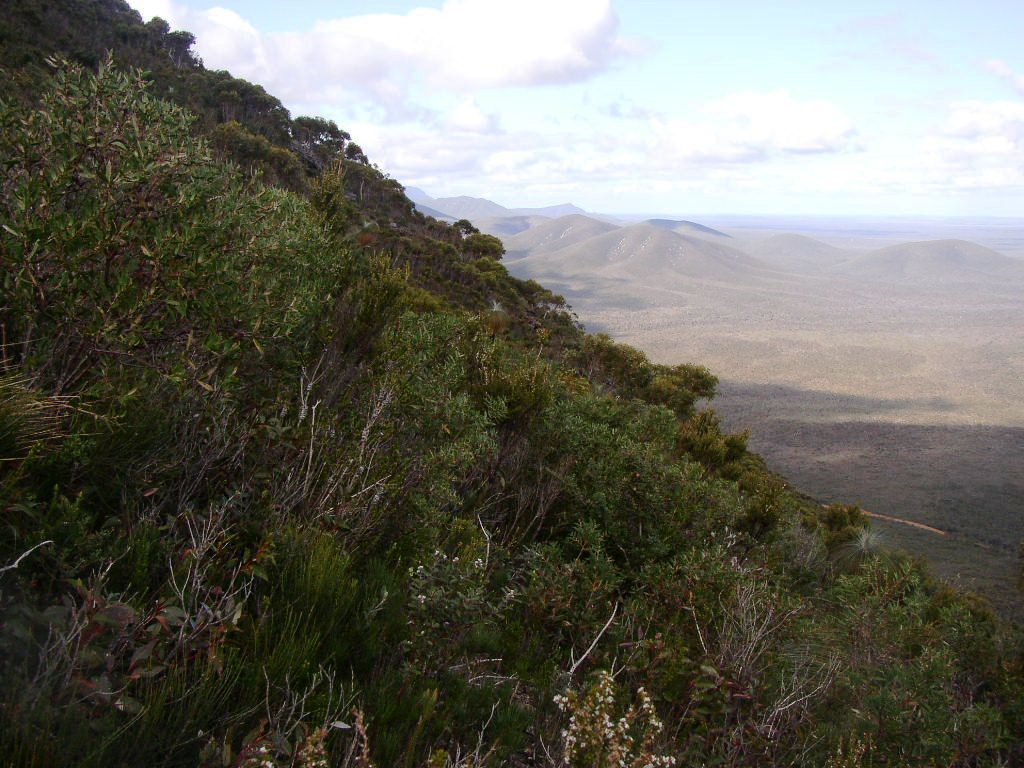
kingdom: Plantae
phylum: Tracheophyta
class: Magnoliopsida
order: Proteales
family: Proteaceae
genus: Hakea
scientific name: Hakea ilicifolia
